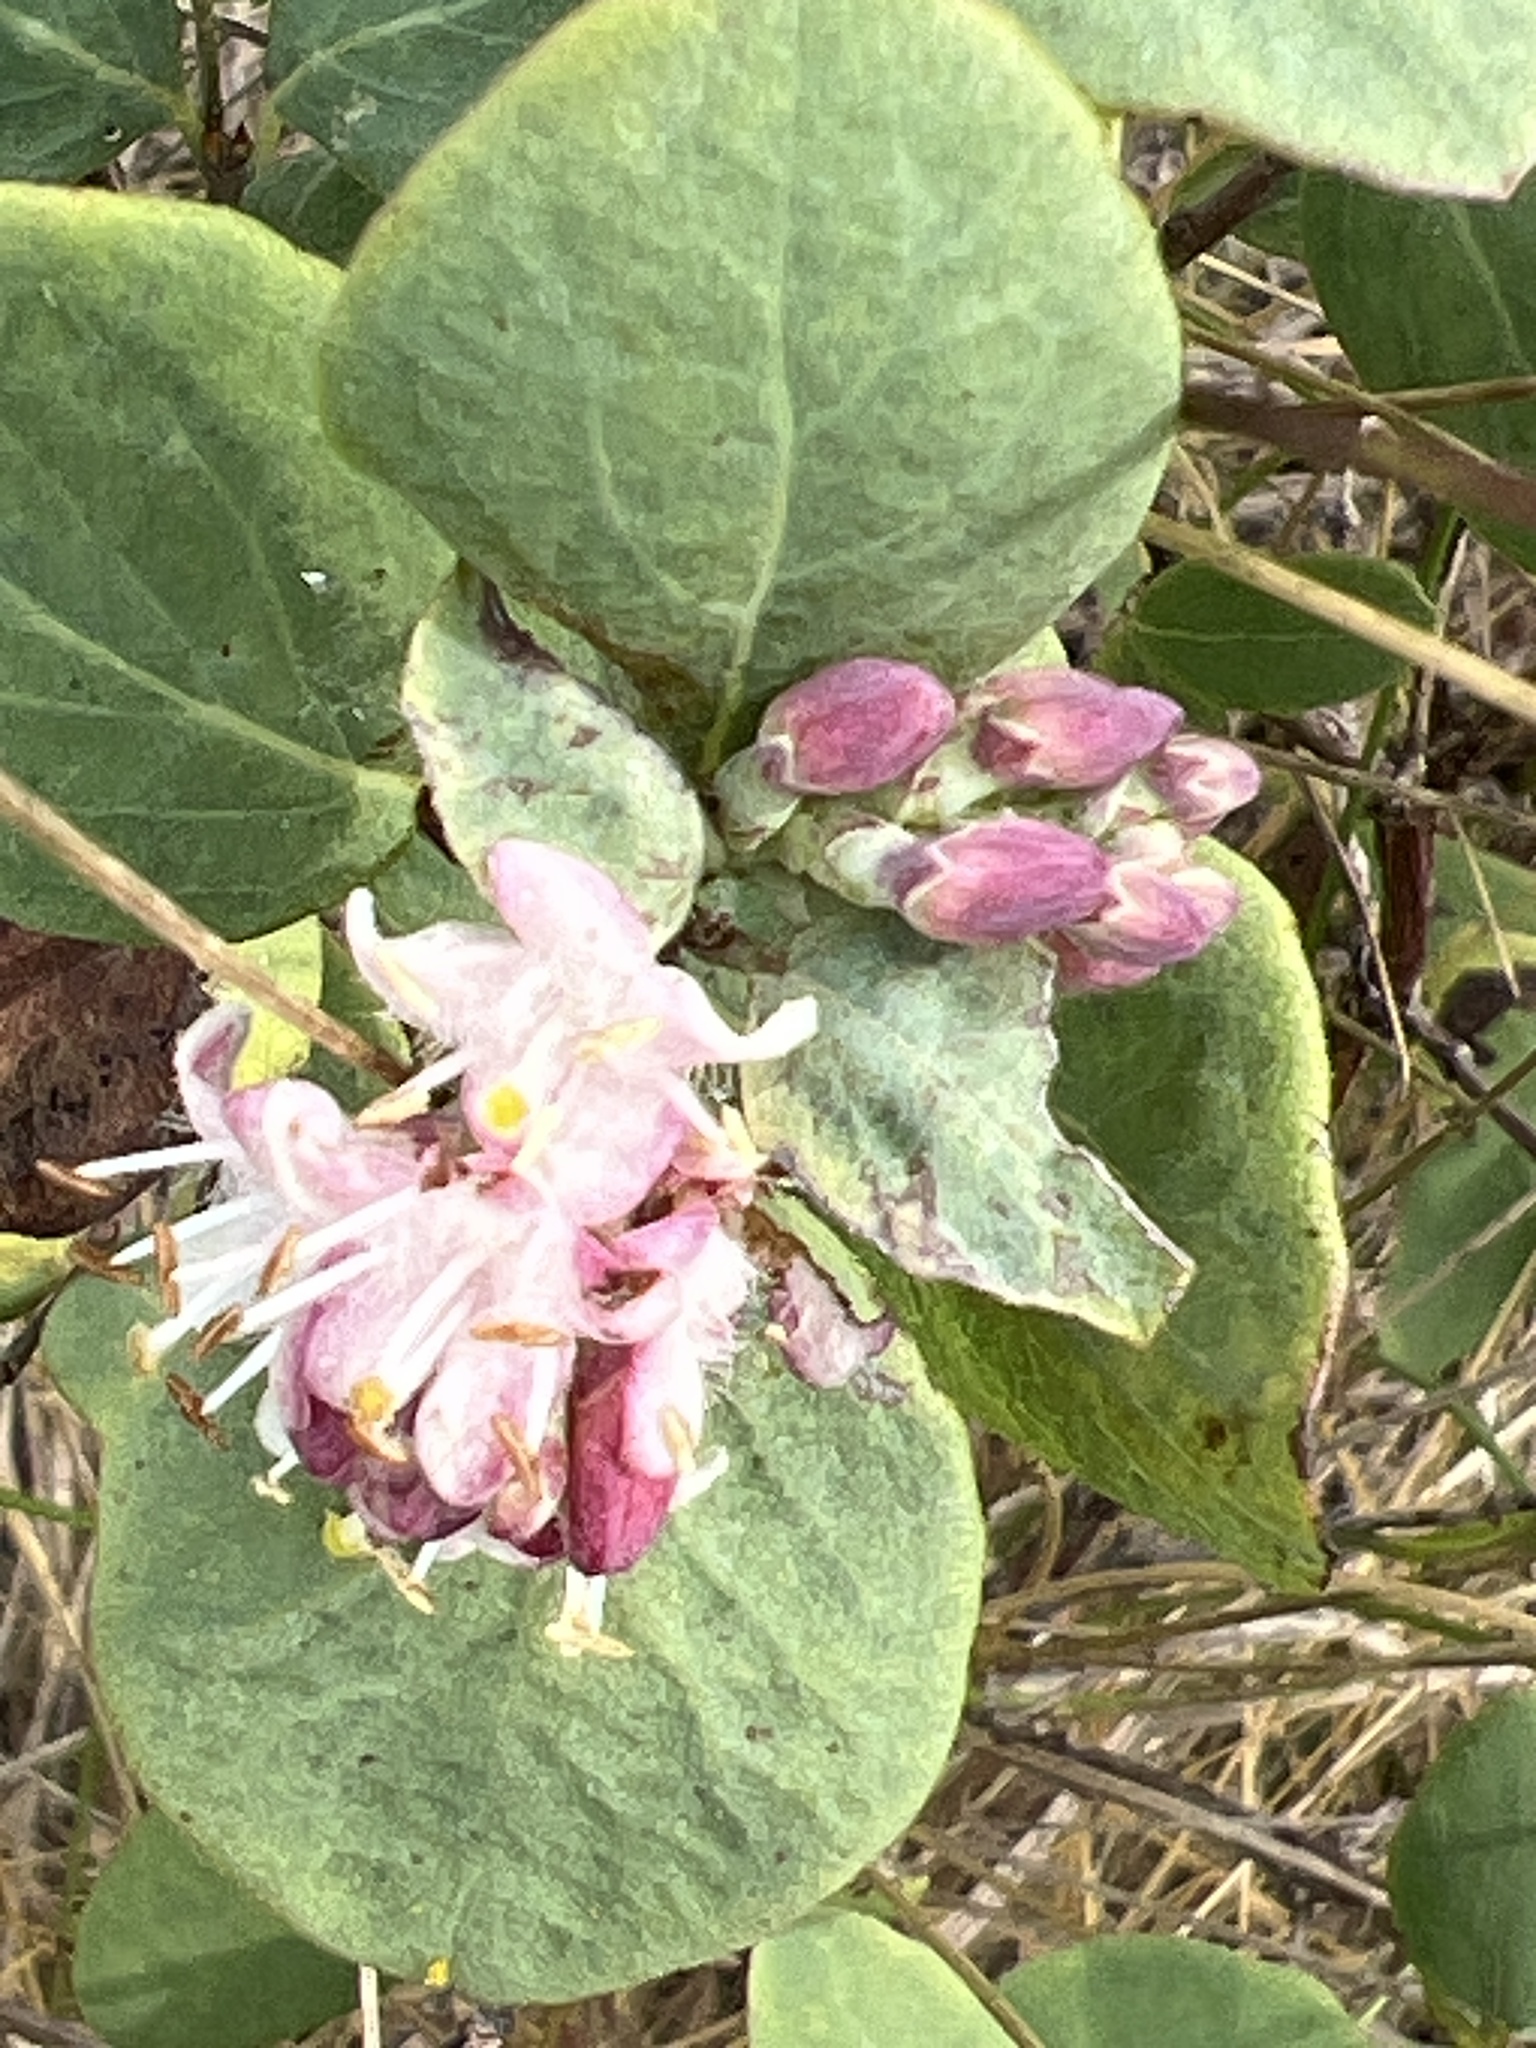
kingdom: Plantae
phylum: Tracheophyta
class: Magnoliopsida
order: Dipsacales
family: Caprifoliaceae
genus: Symphoricarpos
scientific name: Symphoricarpos occidentalis
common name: Wolfberry
